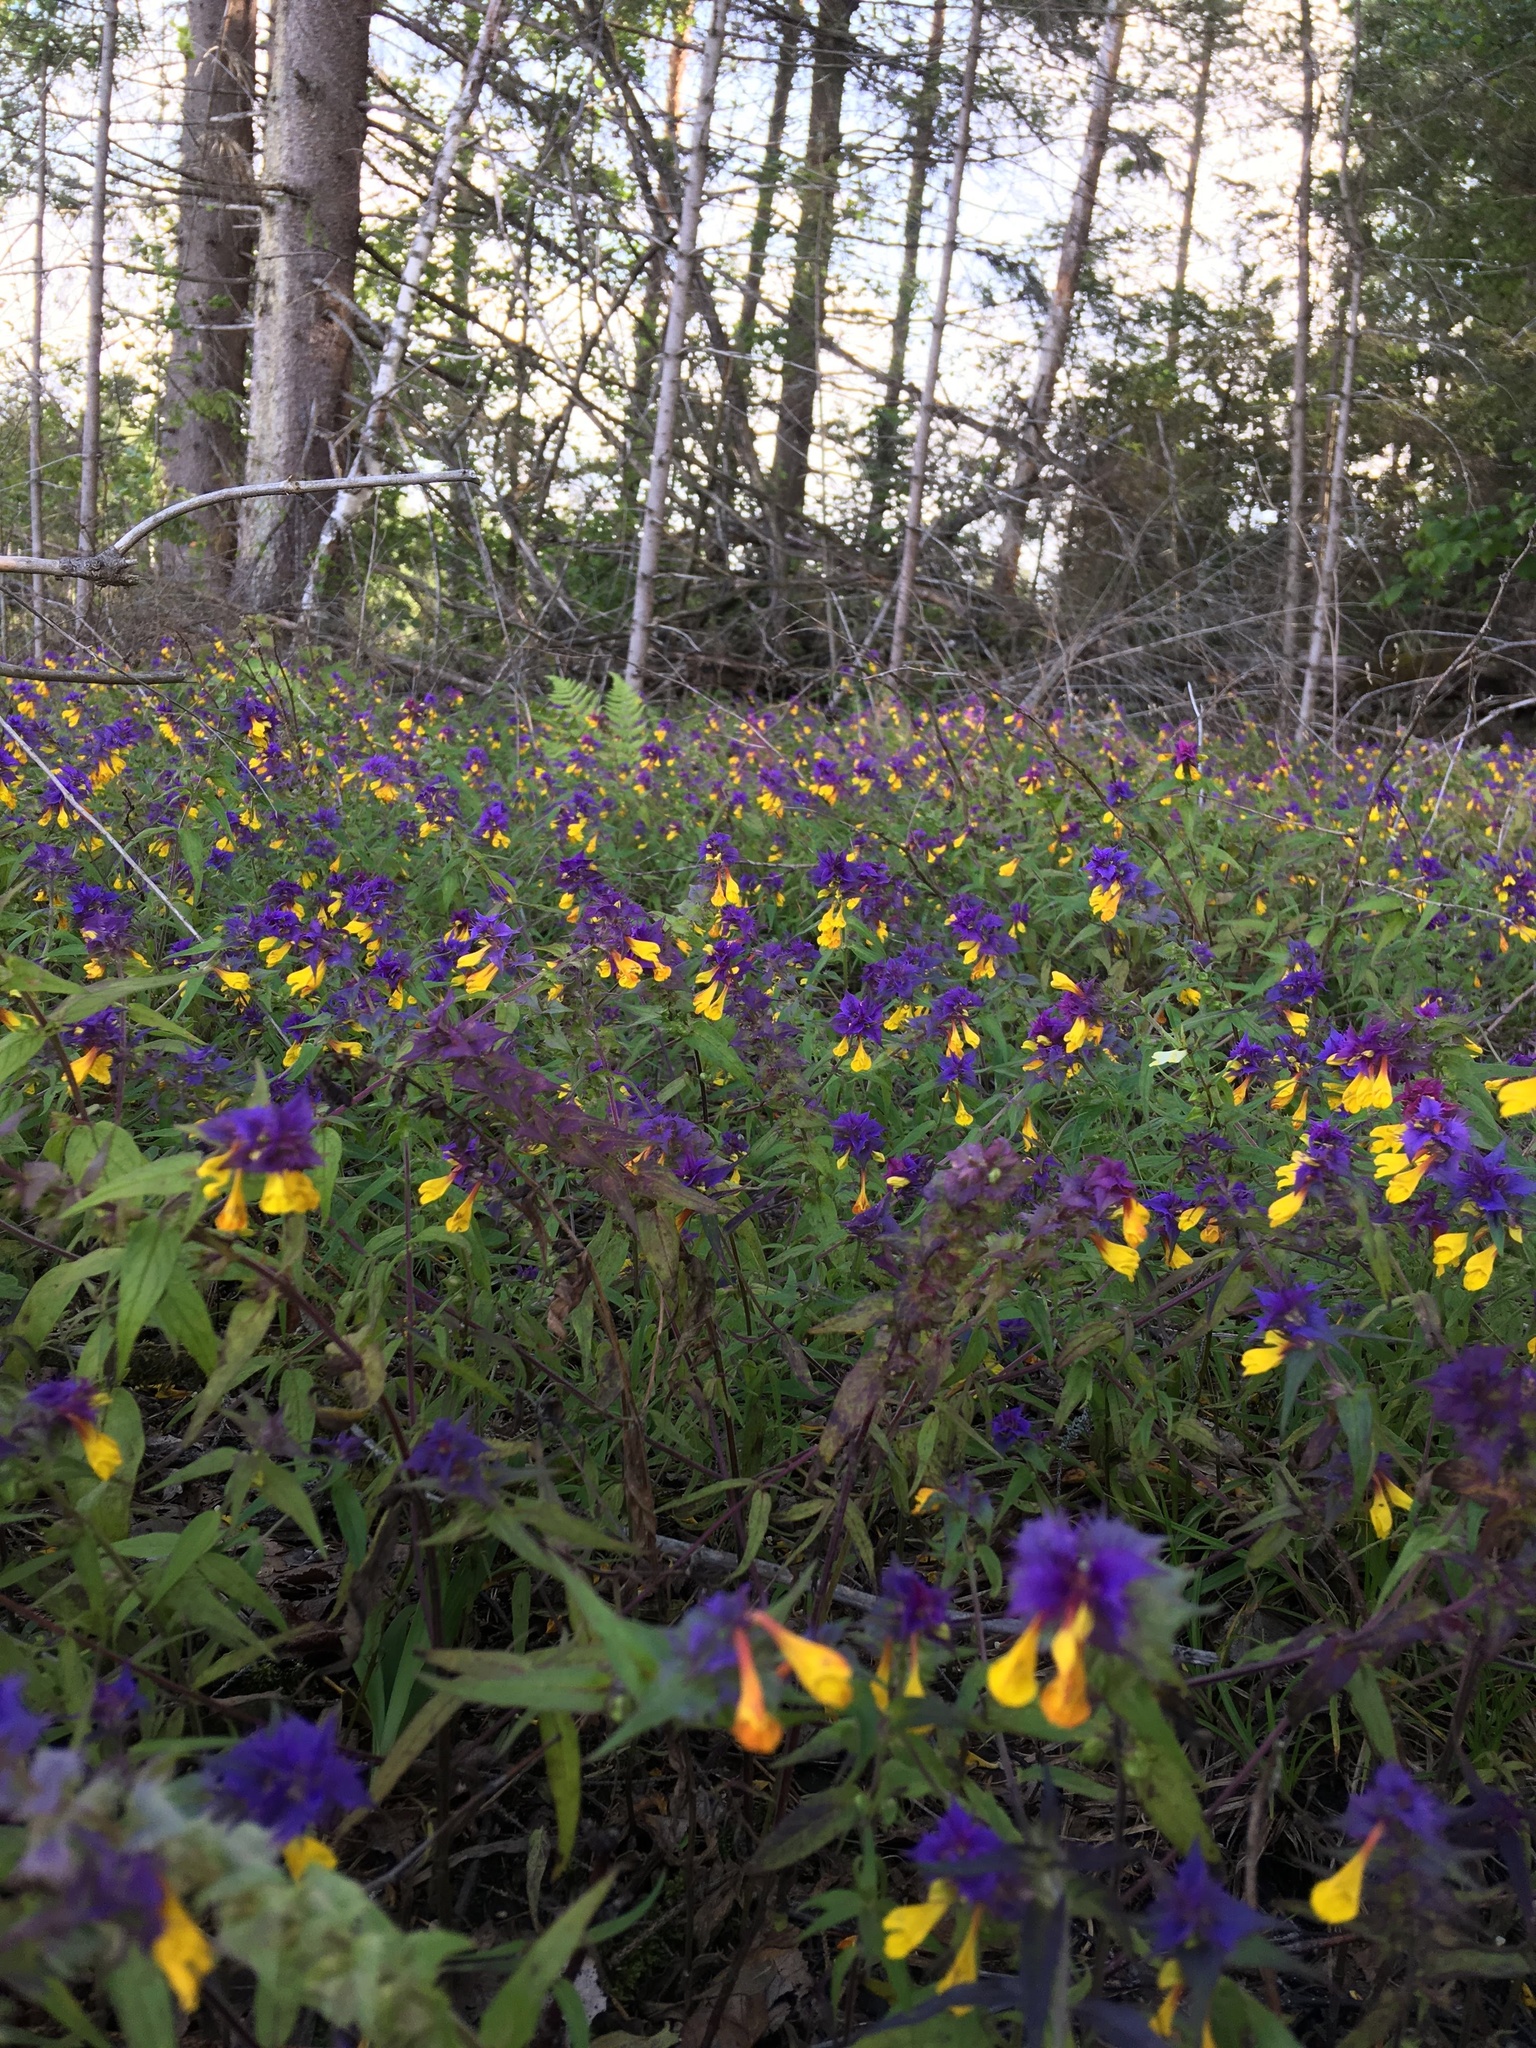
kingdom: Plantae
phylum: Tracheophyta
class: Magnoliopsida
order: Lamiales
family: Orobanchaceae
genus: Melampyrum
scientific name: Melampyrum nemorosum
